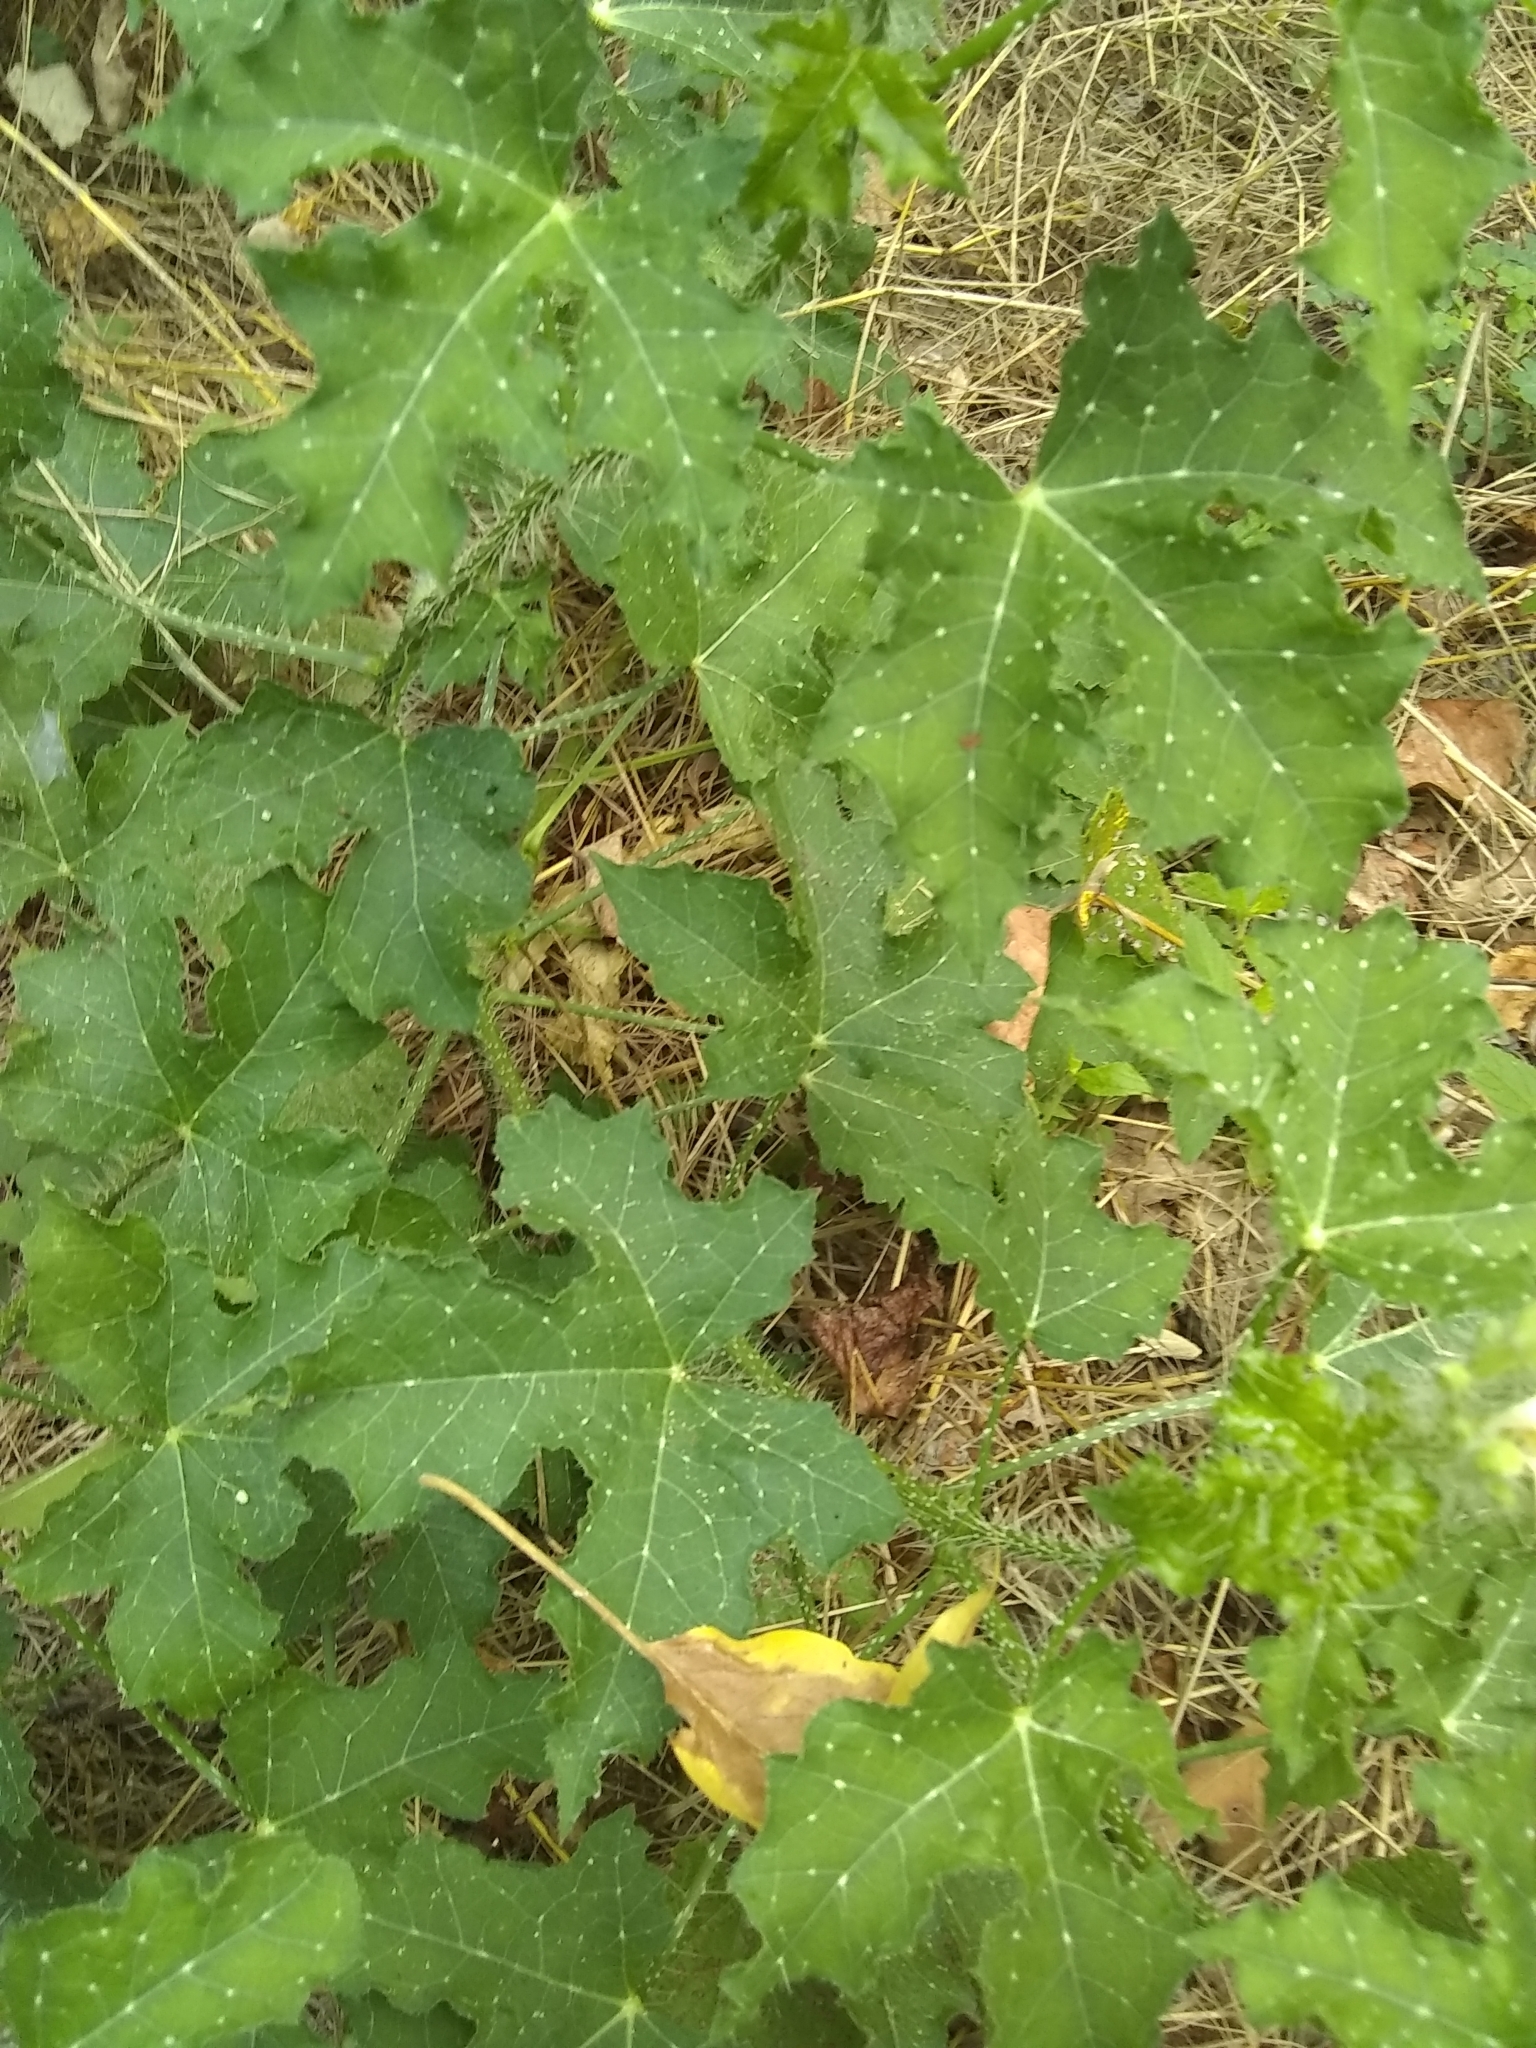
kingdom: Plantae
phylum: Tracheophyta
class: Magnoliopsida
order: Malpighiales
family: Euphorbiaceae
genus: Cnidoscolus
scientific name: Cnidoscolus texanus
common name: Texas bull-nettle
